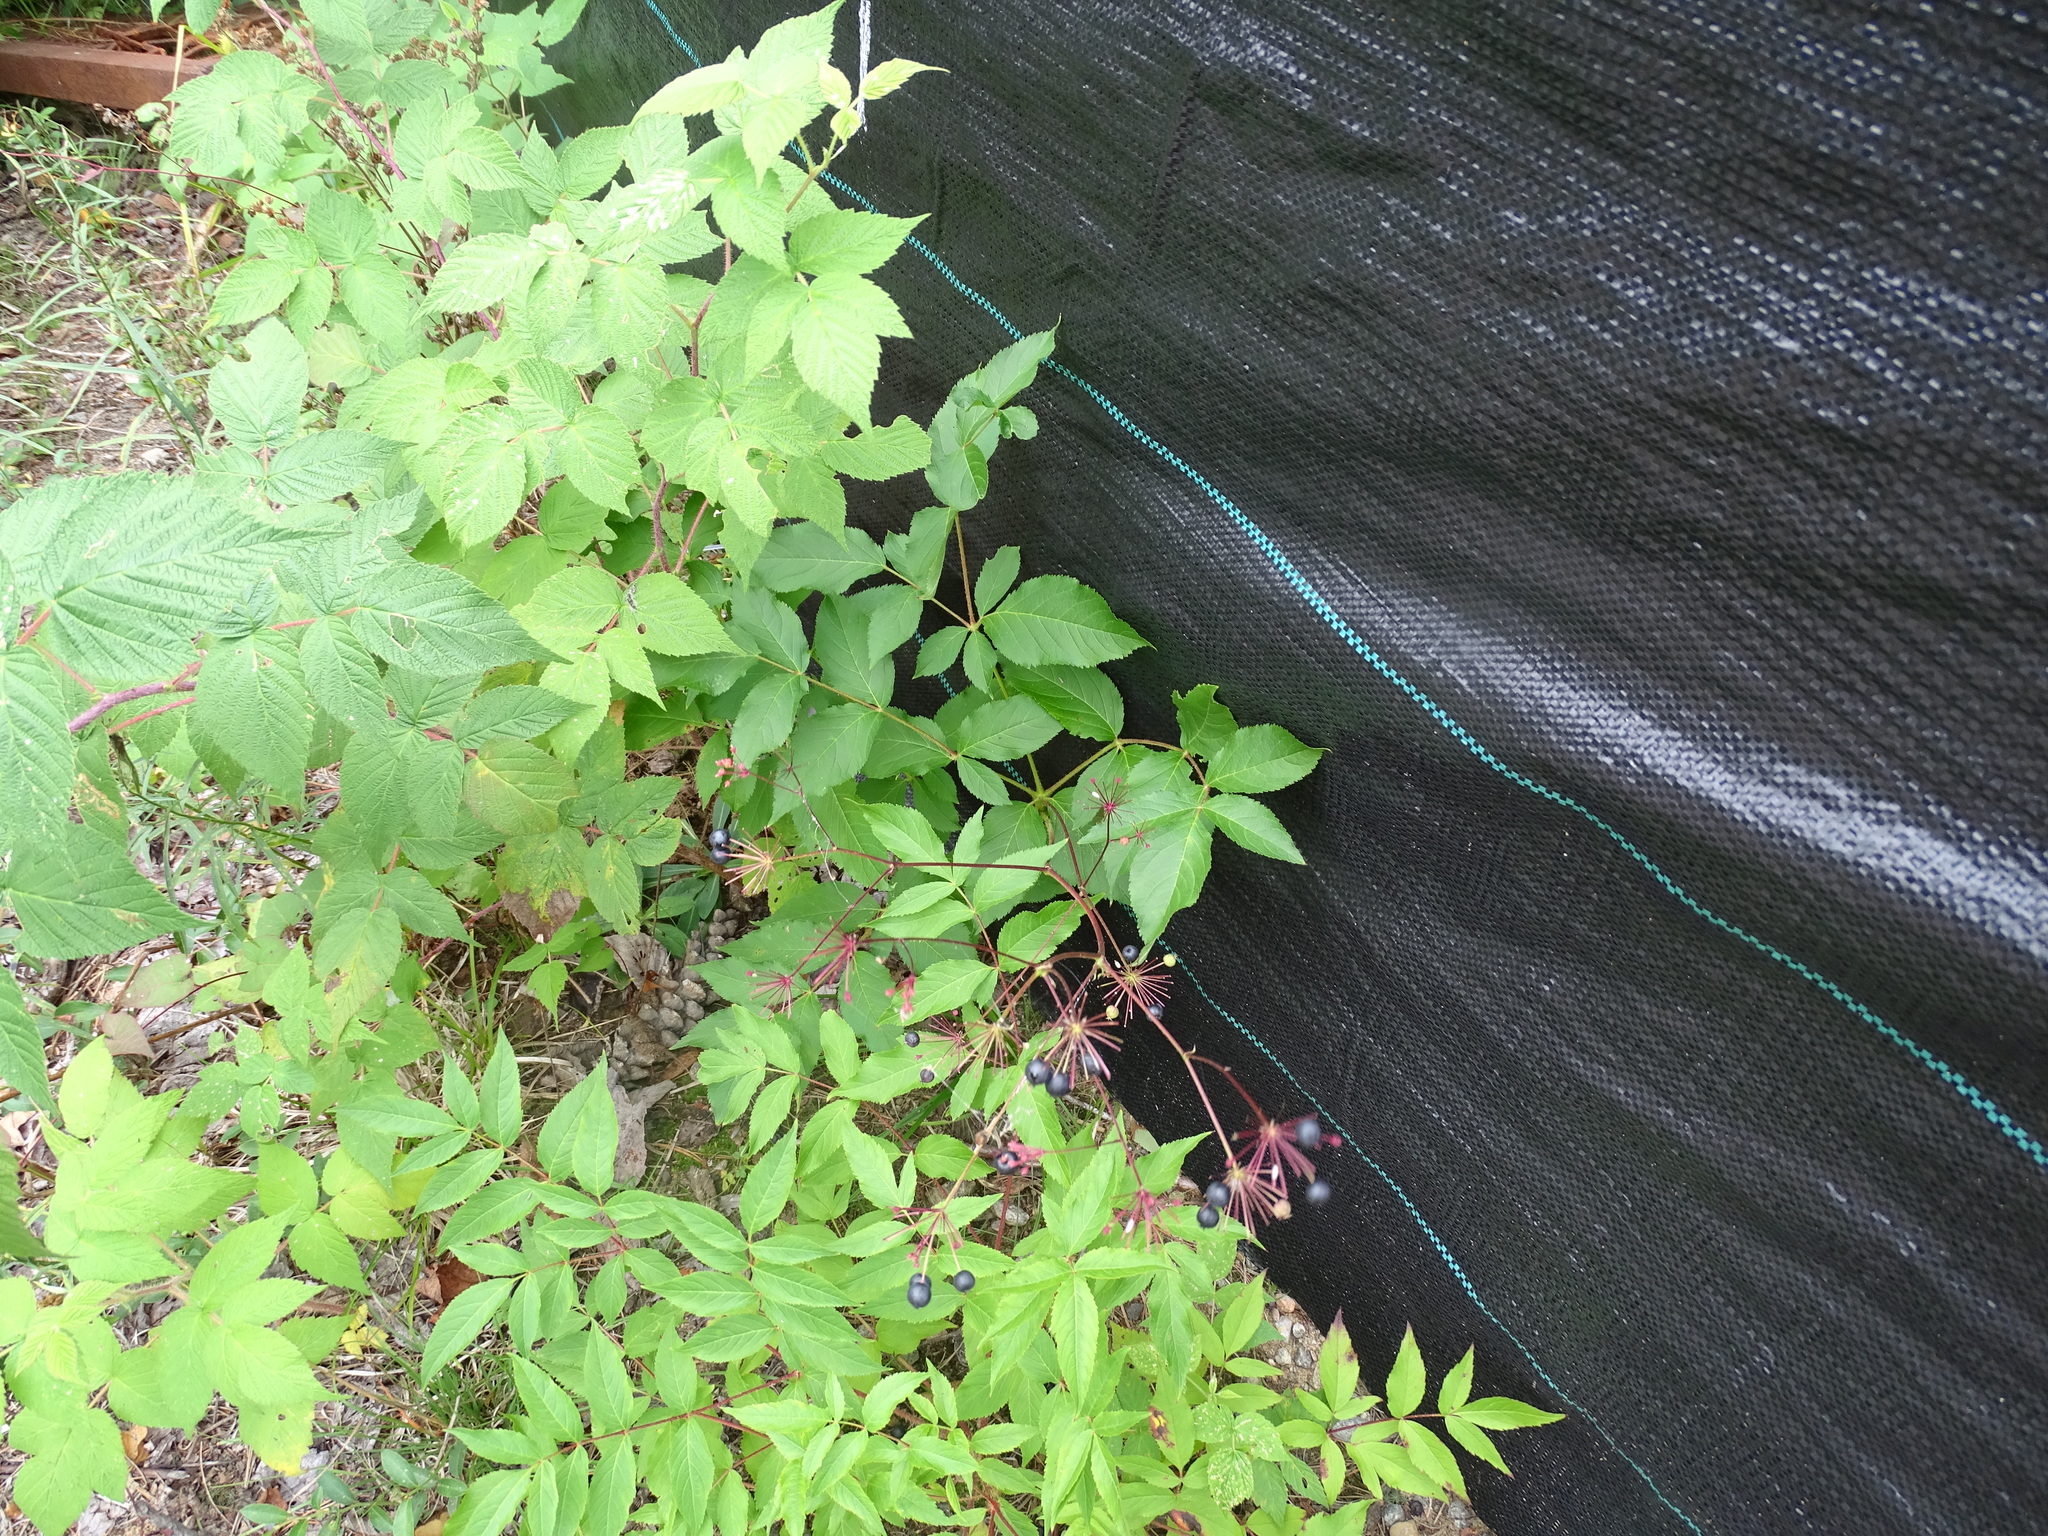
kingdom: Plantae
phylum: Tracheophyta
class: Magnoliopsida
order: Apiales
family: Araliaceae
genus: Aralia
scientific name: Aralia hispida
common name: Bristly sarsaparilla
